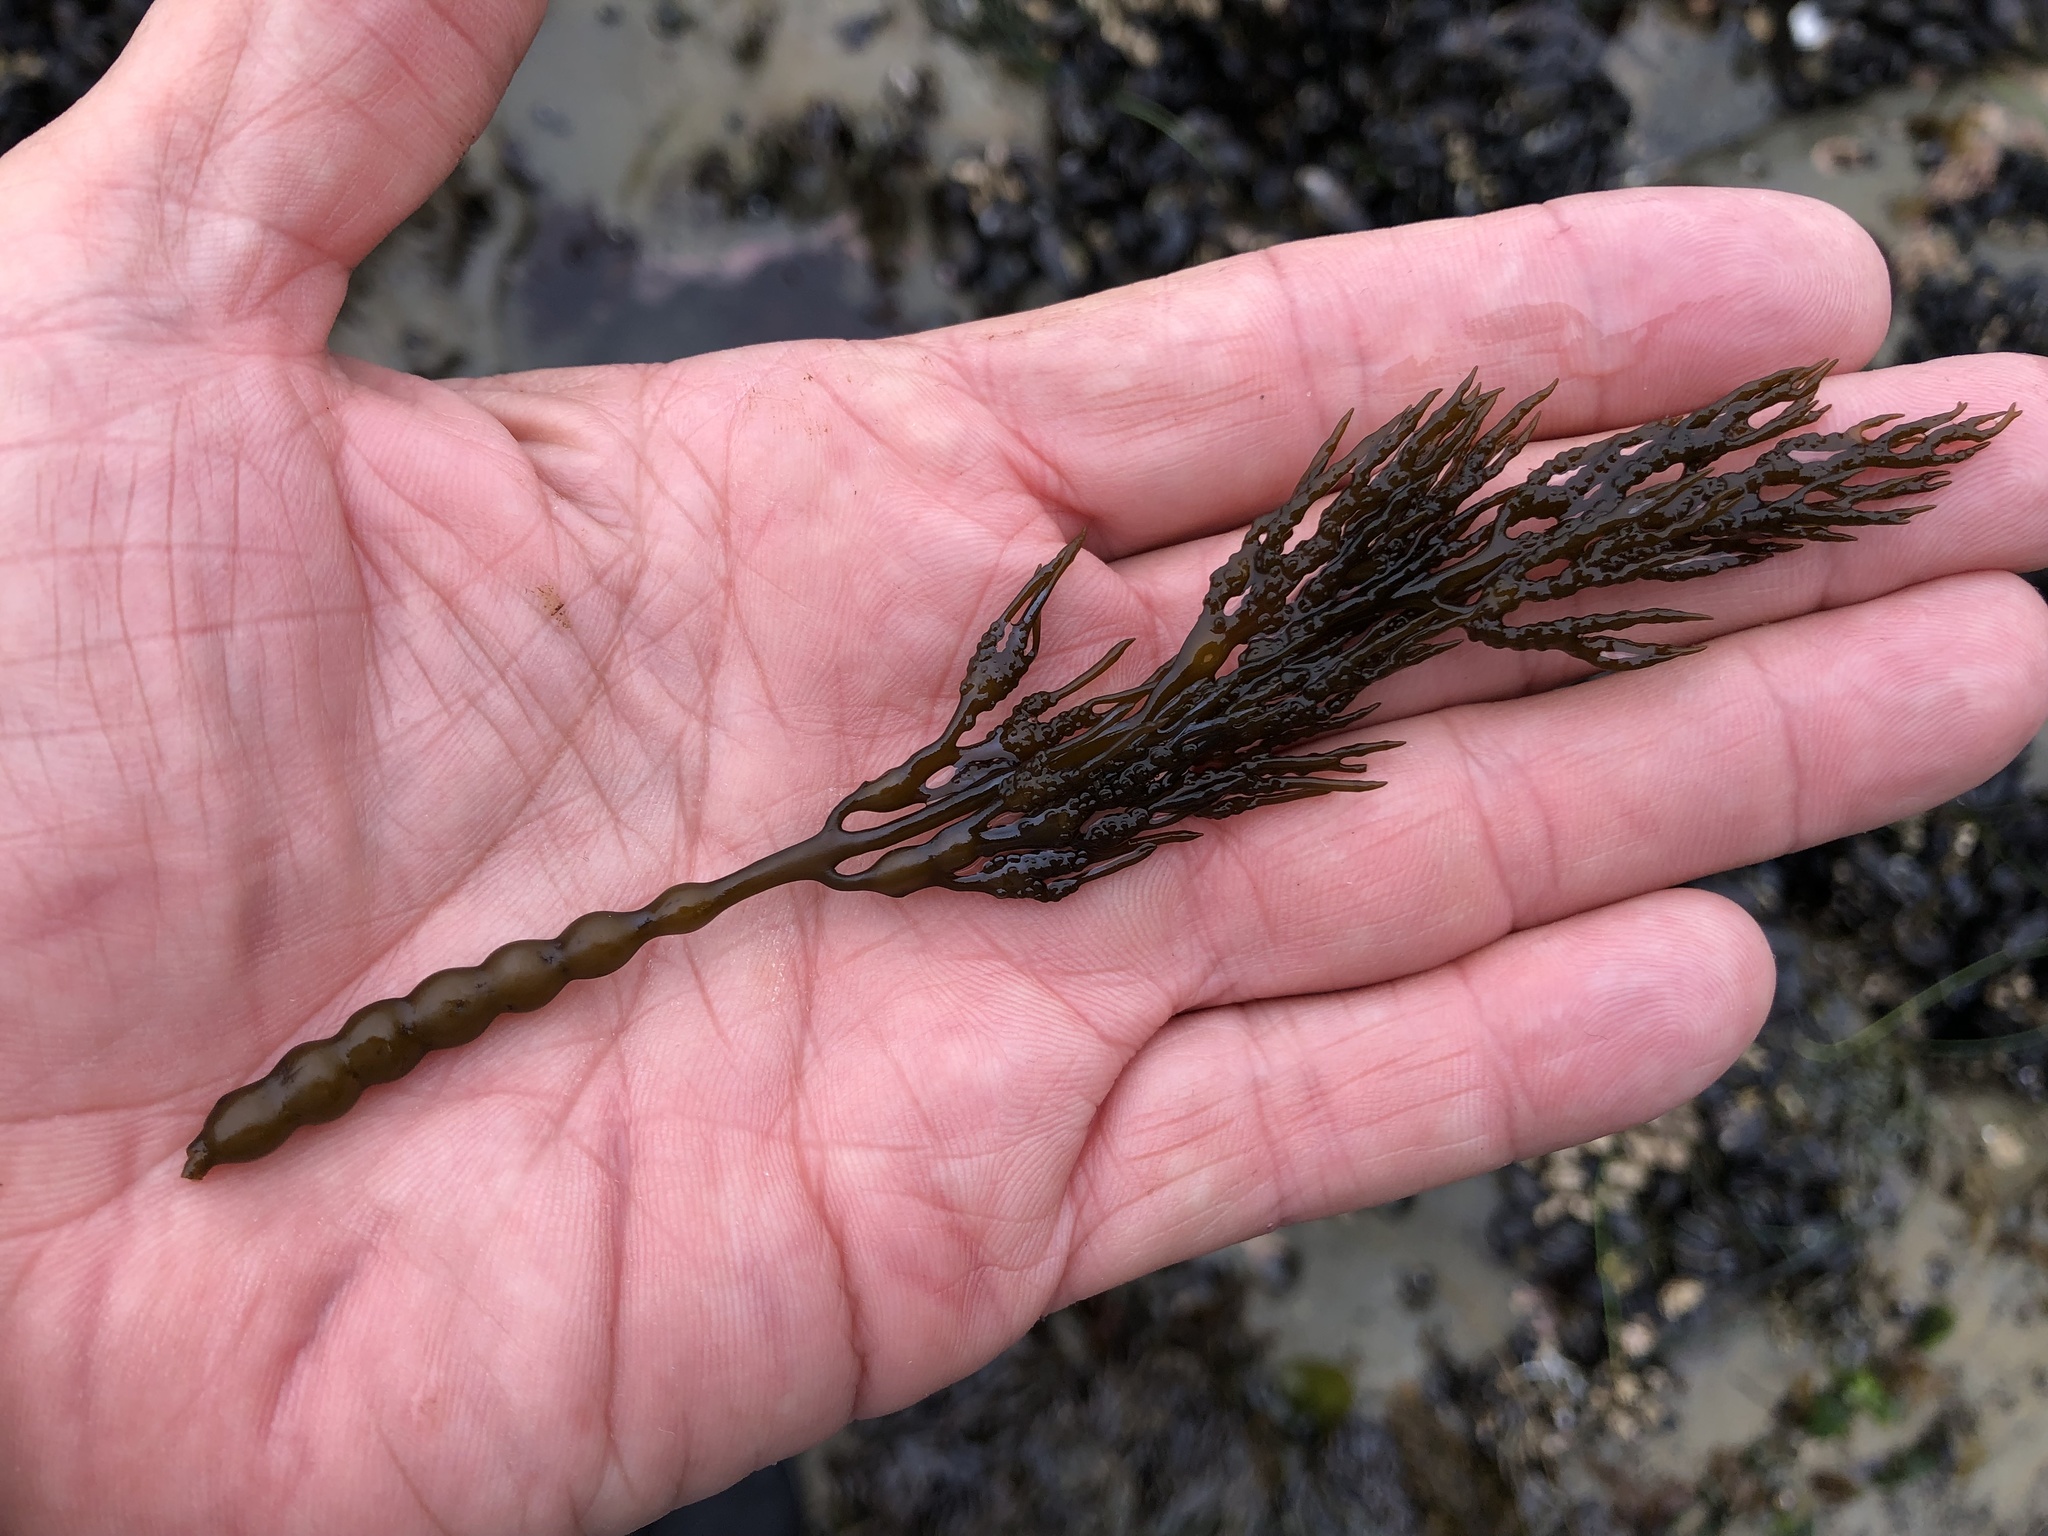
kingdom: Chromista
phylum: Ochrophyta
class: Phaeophyceae
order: Fucales
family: Sargassaceae
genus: Stephanocystis
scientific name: Stephanocystis
